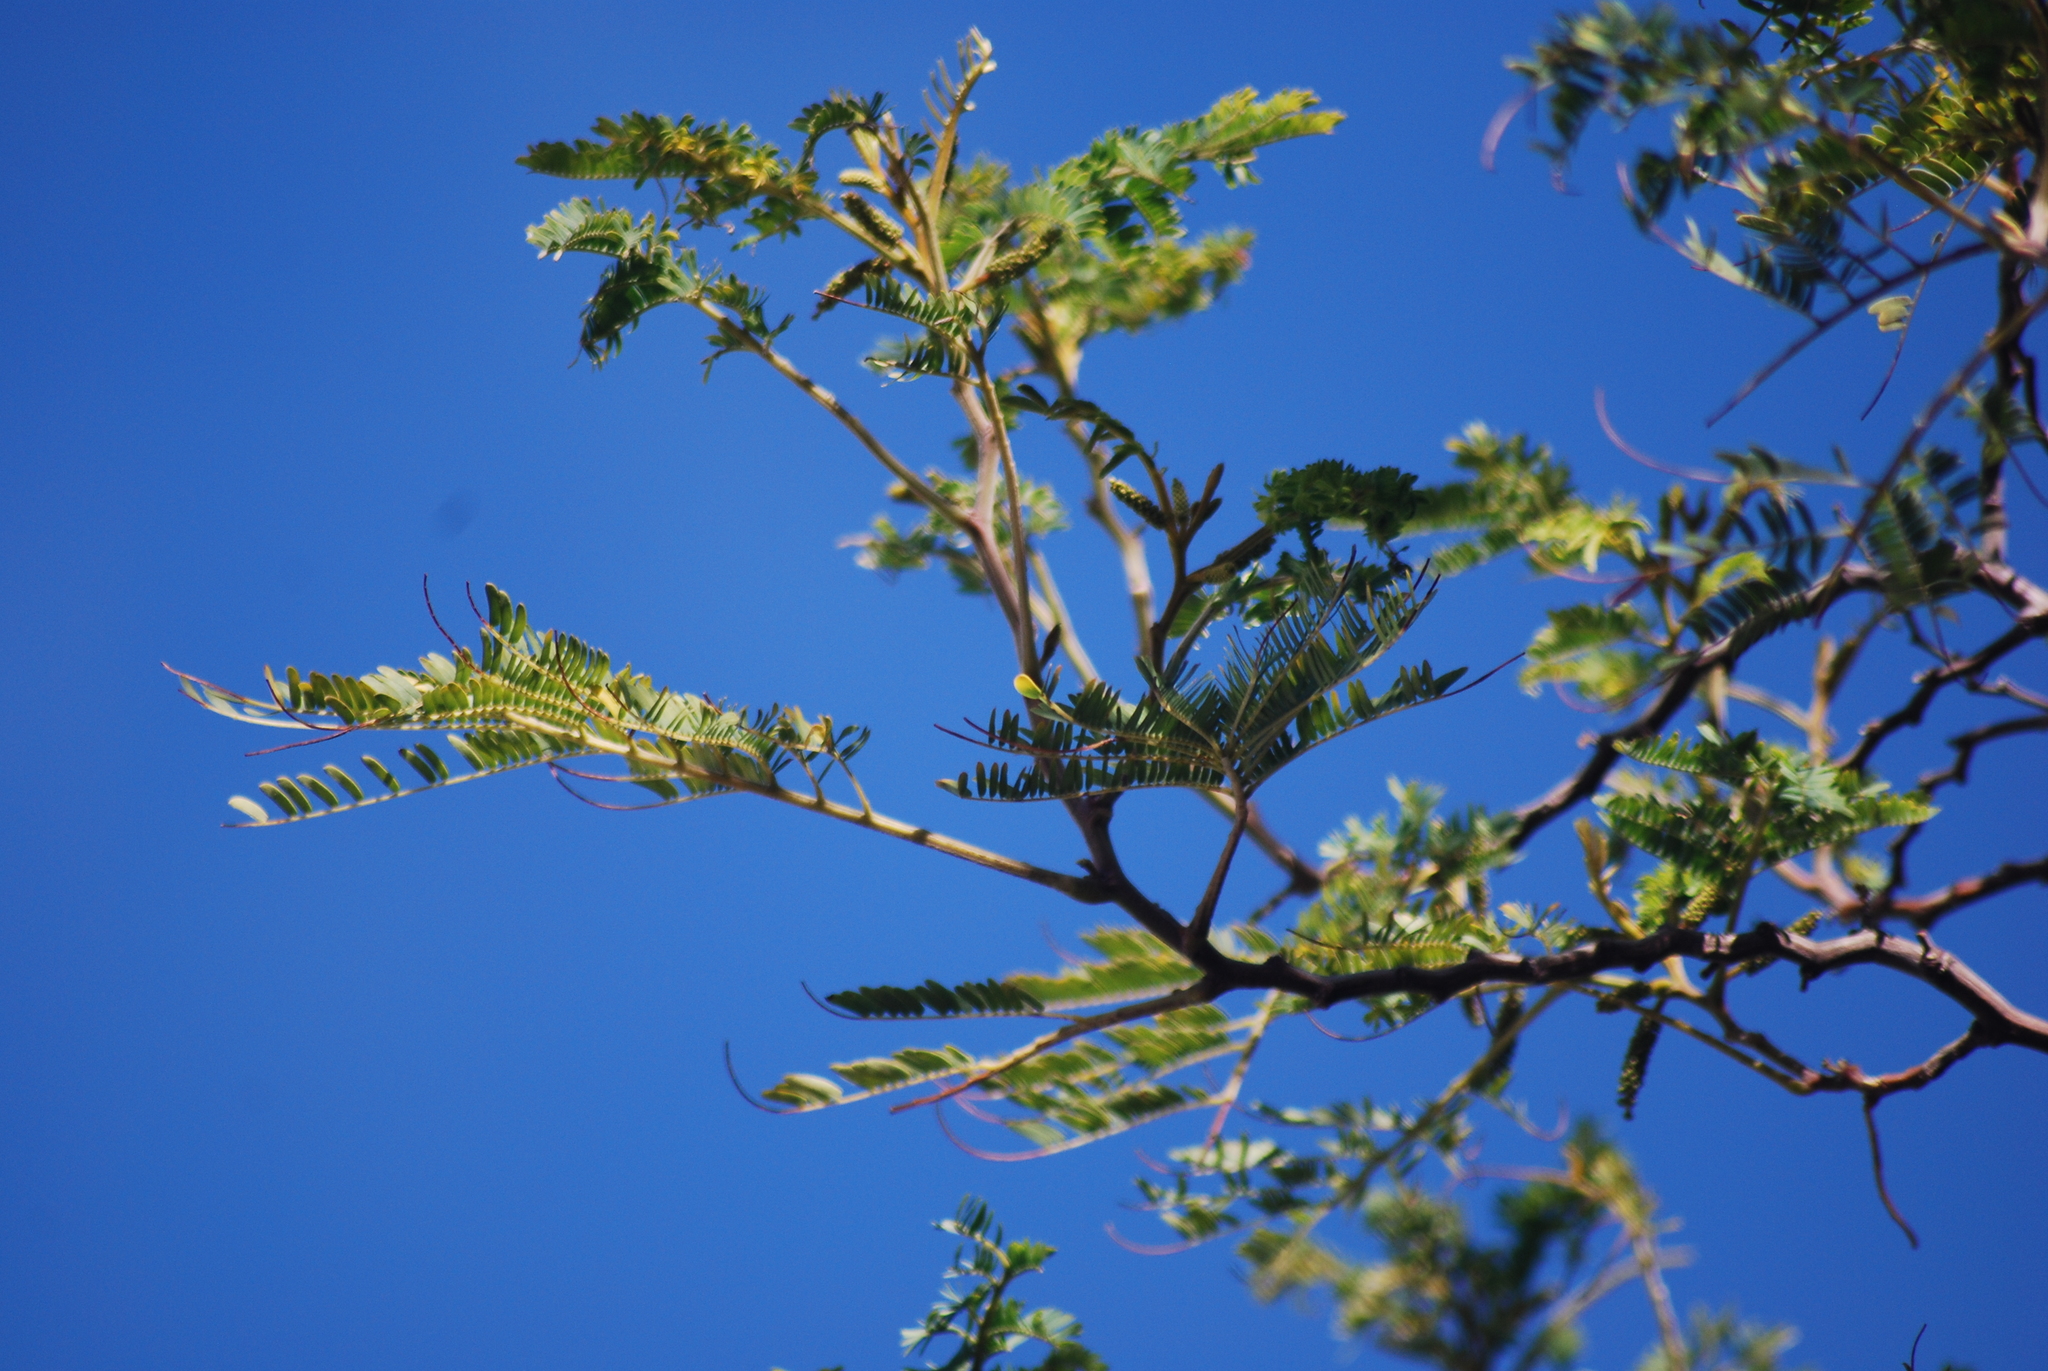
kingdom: Plantae
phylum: Tracheophyta
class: Magnoliopsida
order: Fabales
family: Fabaceae
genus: Paraserianthes
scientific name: Paraserianthes lophantha
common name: Plume albizia
